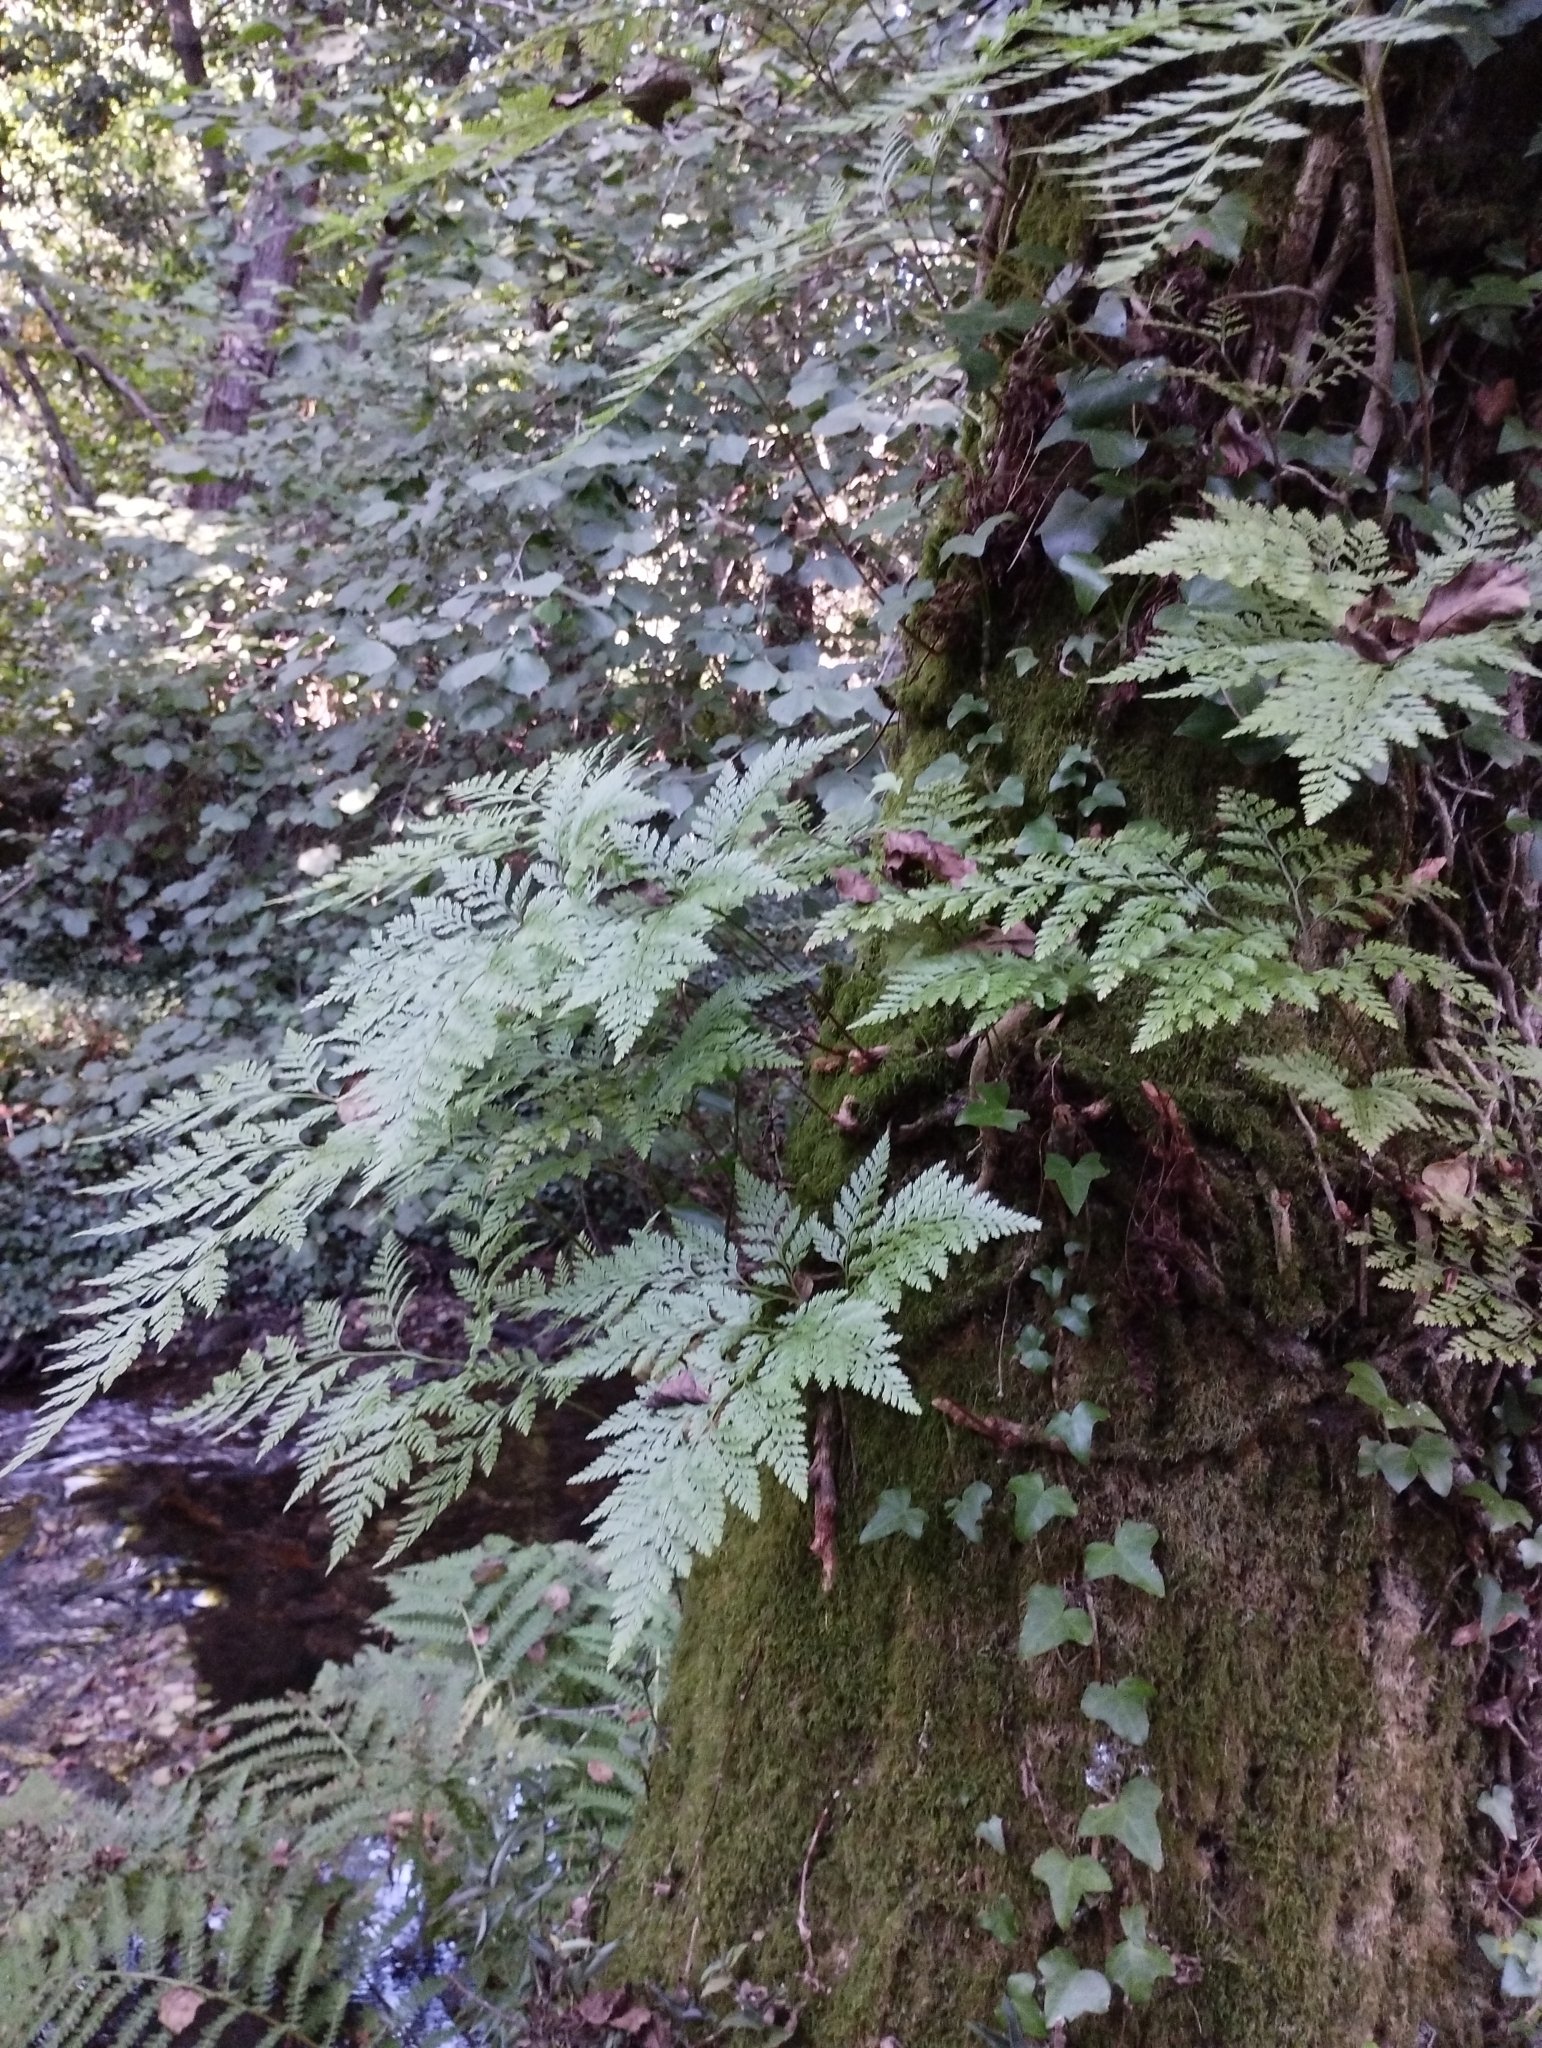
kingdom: Plantae
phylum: Tracheophyta
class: Polypodiopsida
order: Polypodiales
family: Davalliaceae
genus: Davallia
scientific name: Davallia canariensis
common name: Hare's-foot fern
